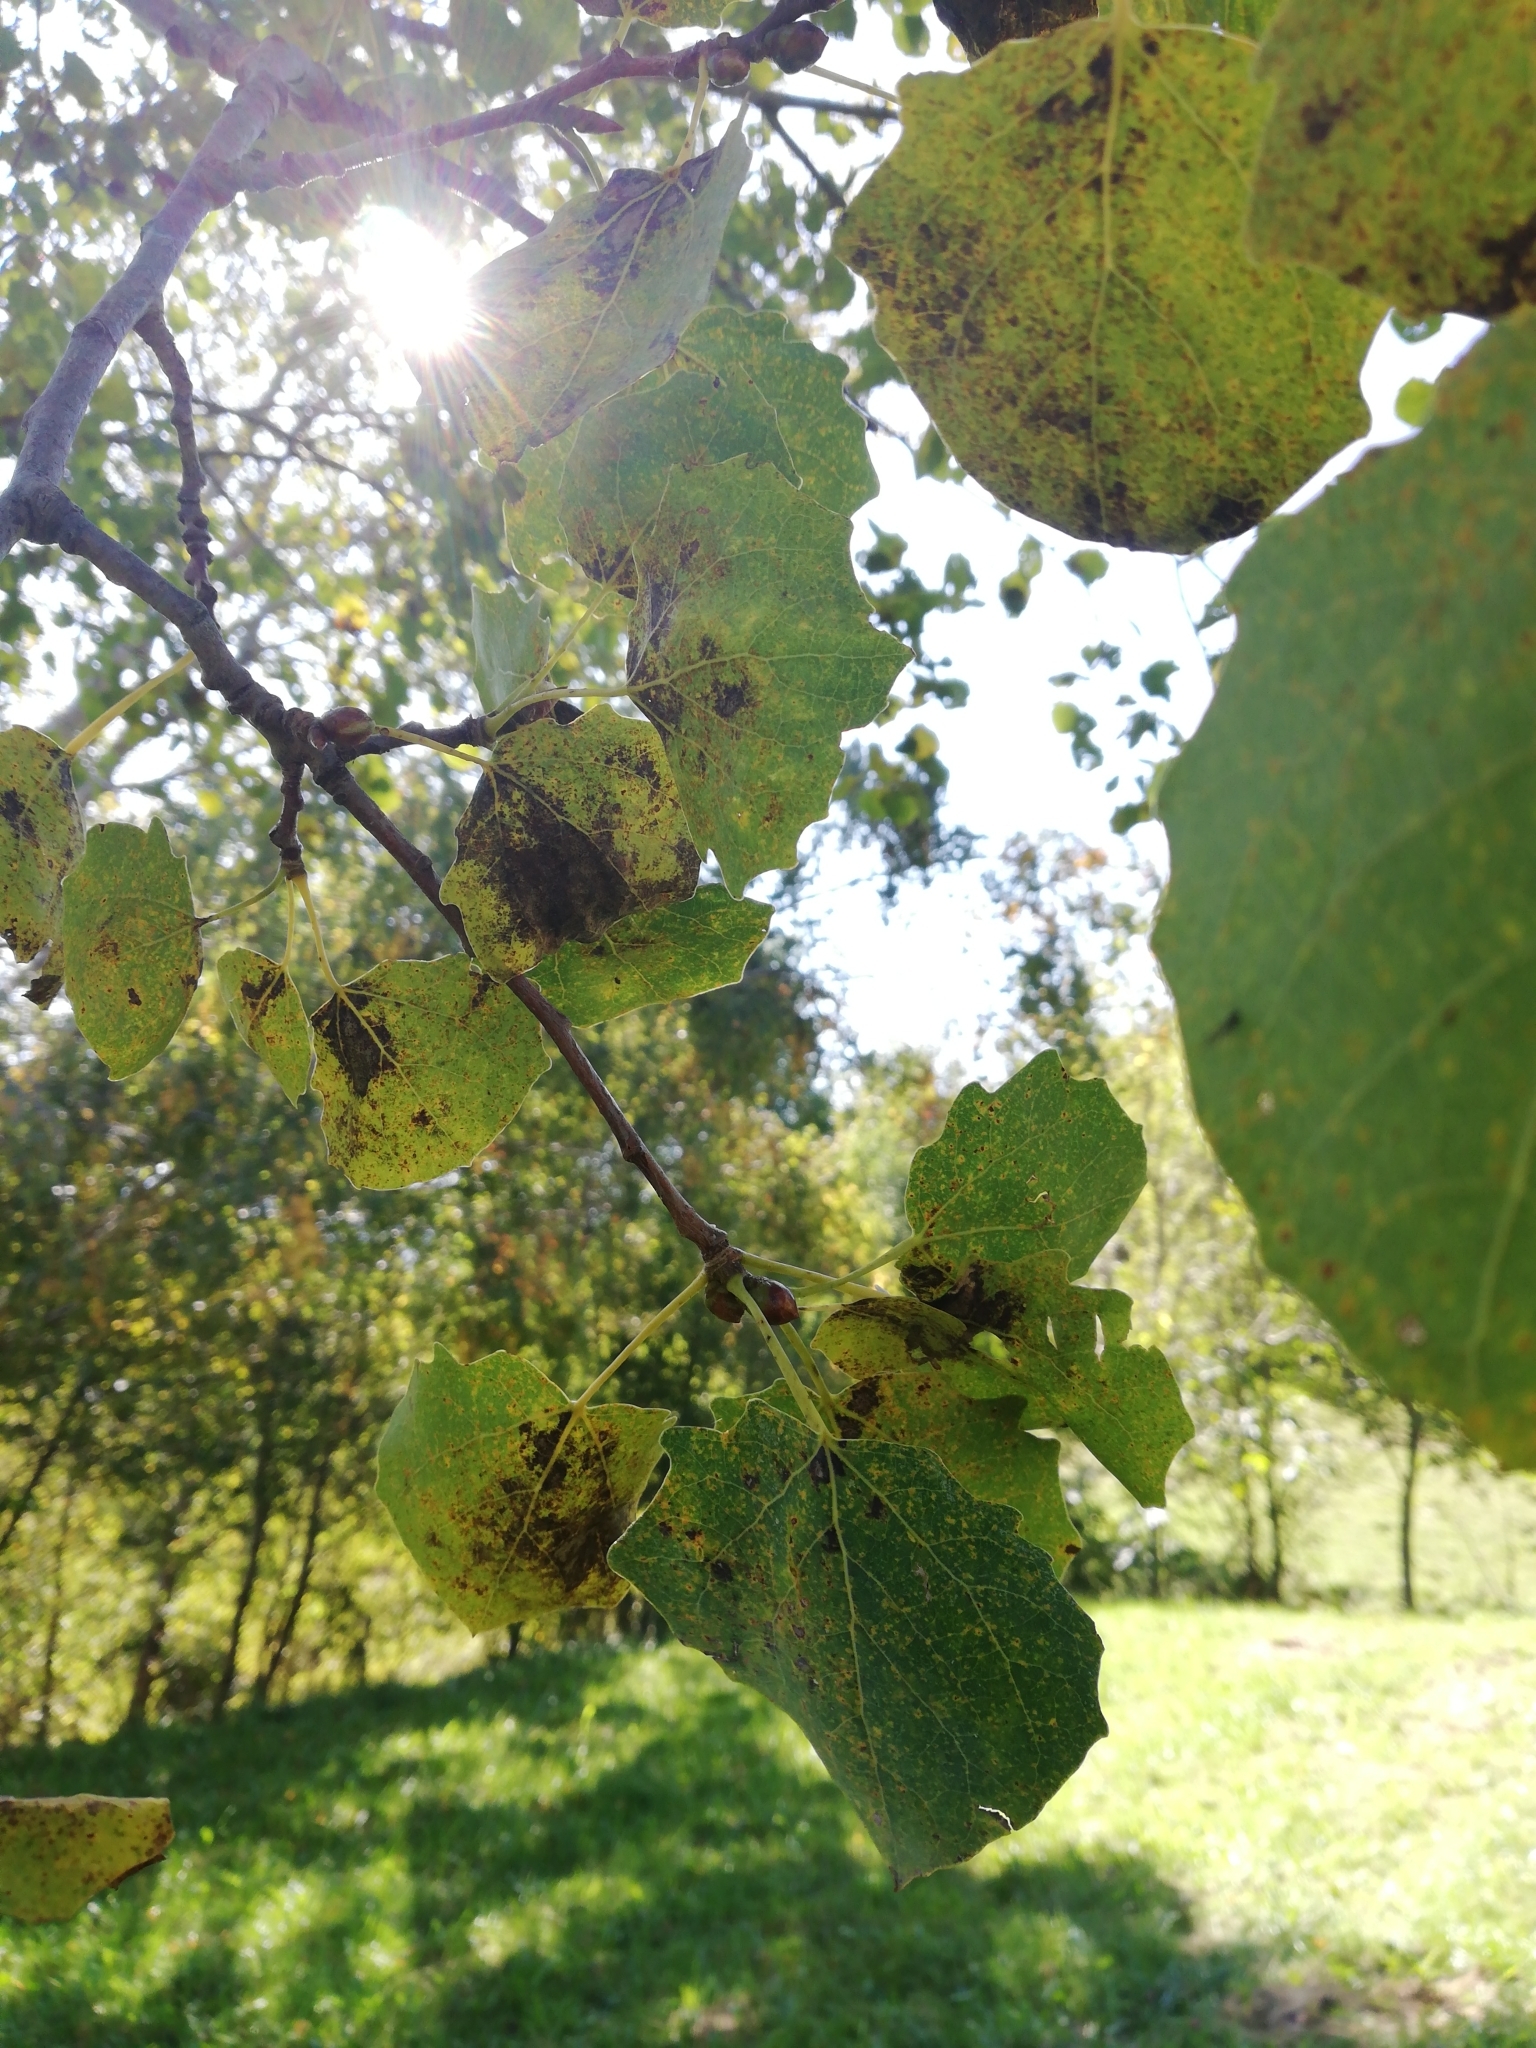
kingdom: Plantae
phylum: Tracheophyta
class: Magnoliopsida
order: Malpighiales
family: Salicaceae
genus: Populus
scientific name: Populus tremula
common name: European aspen
